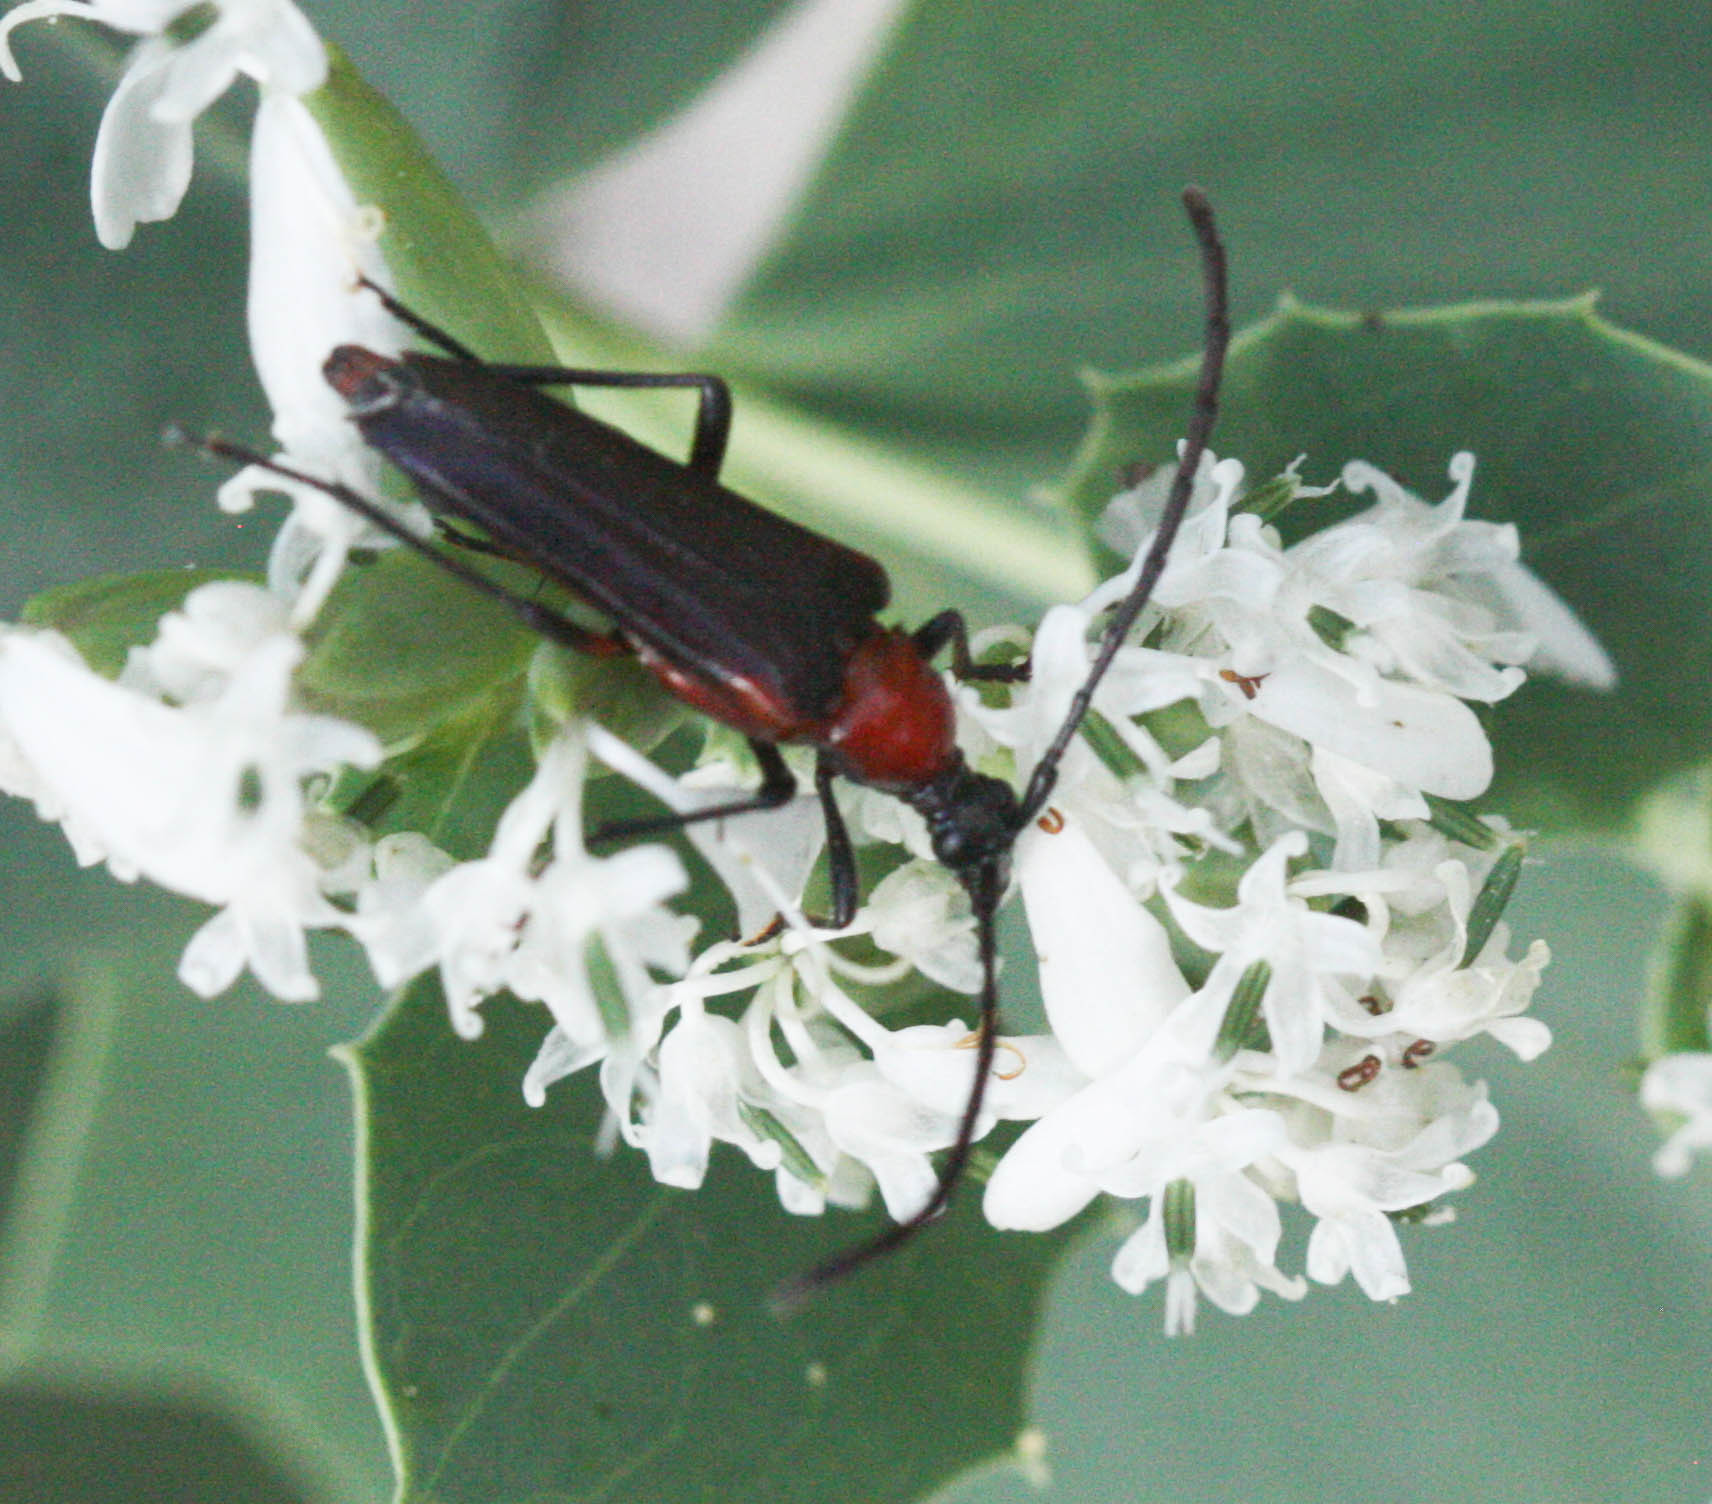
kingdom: Animalia
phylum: Arthropoda
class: Insecta
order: Coleoptera
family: Cerambycidae
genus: Cyphonotida
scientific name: Cyphonotida rostrata
